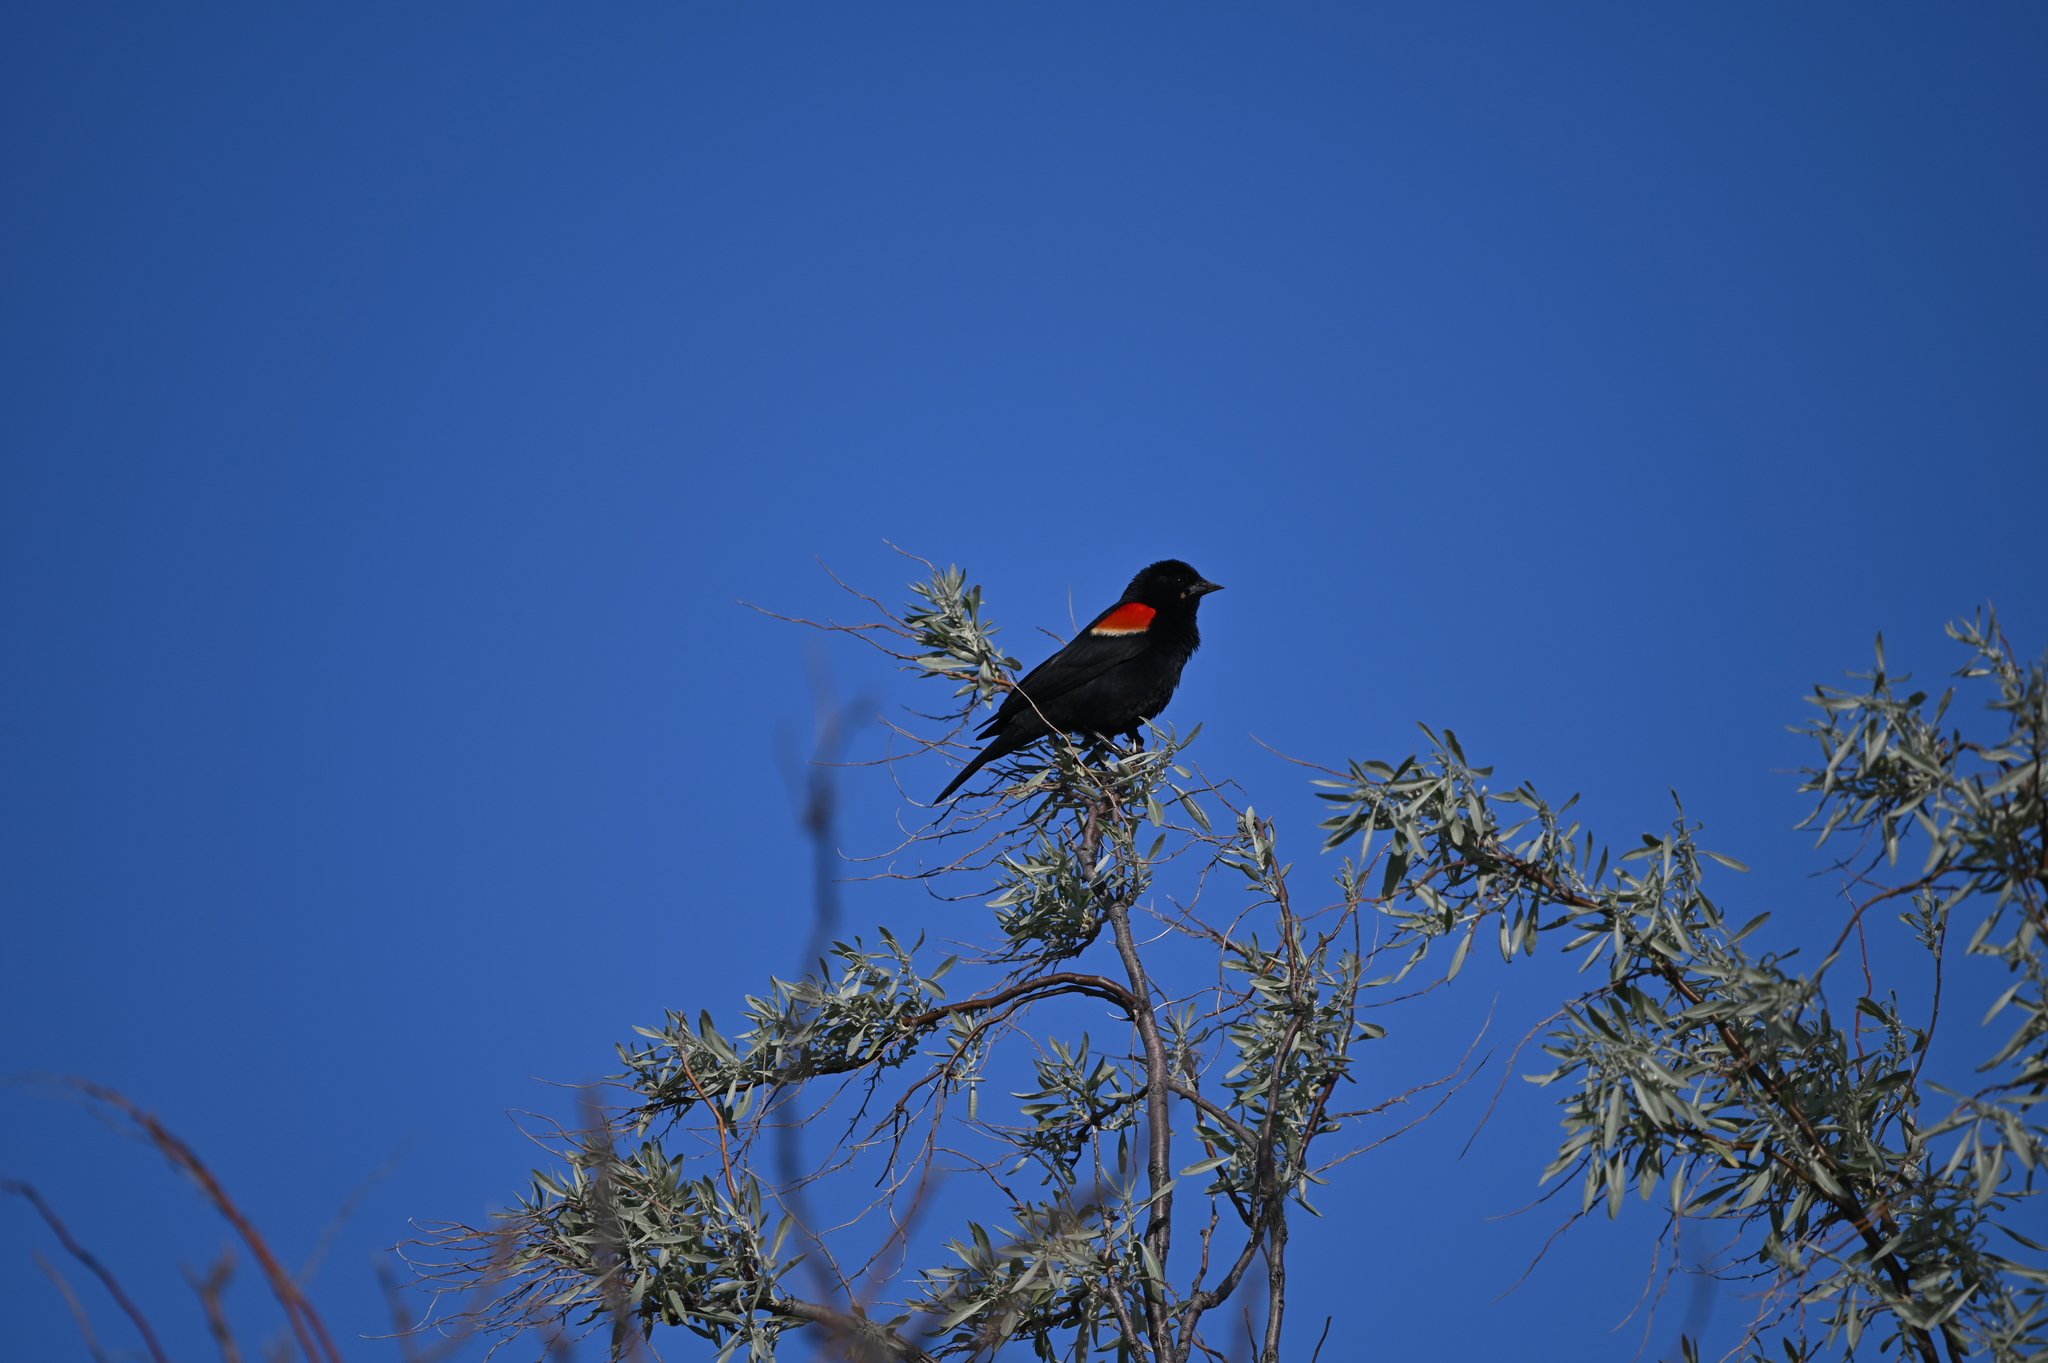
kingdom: Animalia
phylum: Chordata
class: Aves
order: Passeriformes
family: Icteridae
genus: Agelaius
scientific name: Agelaius phoeniceus
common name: Red-winged blackbird
